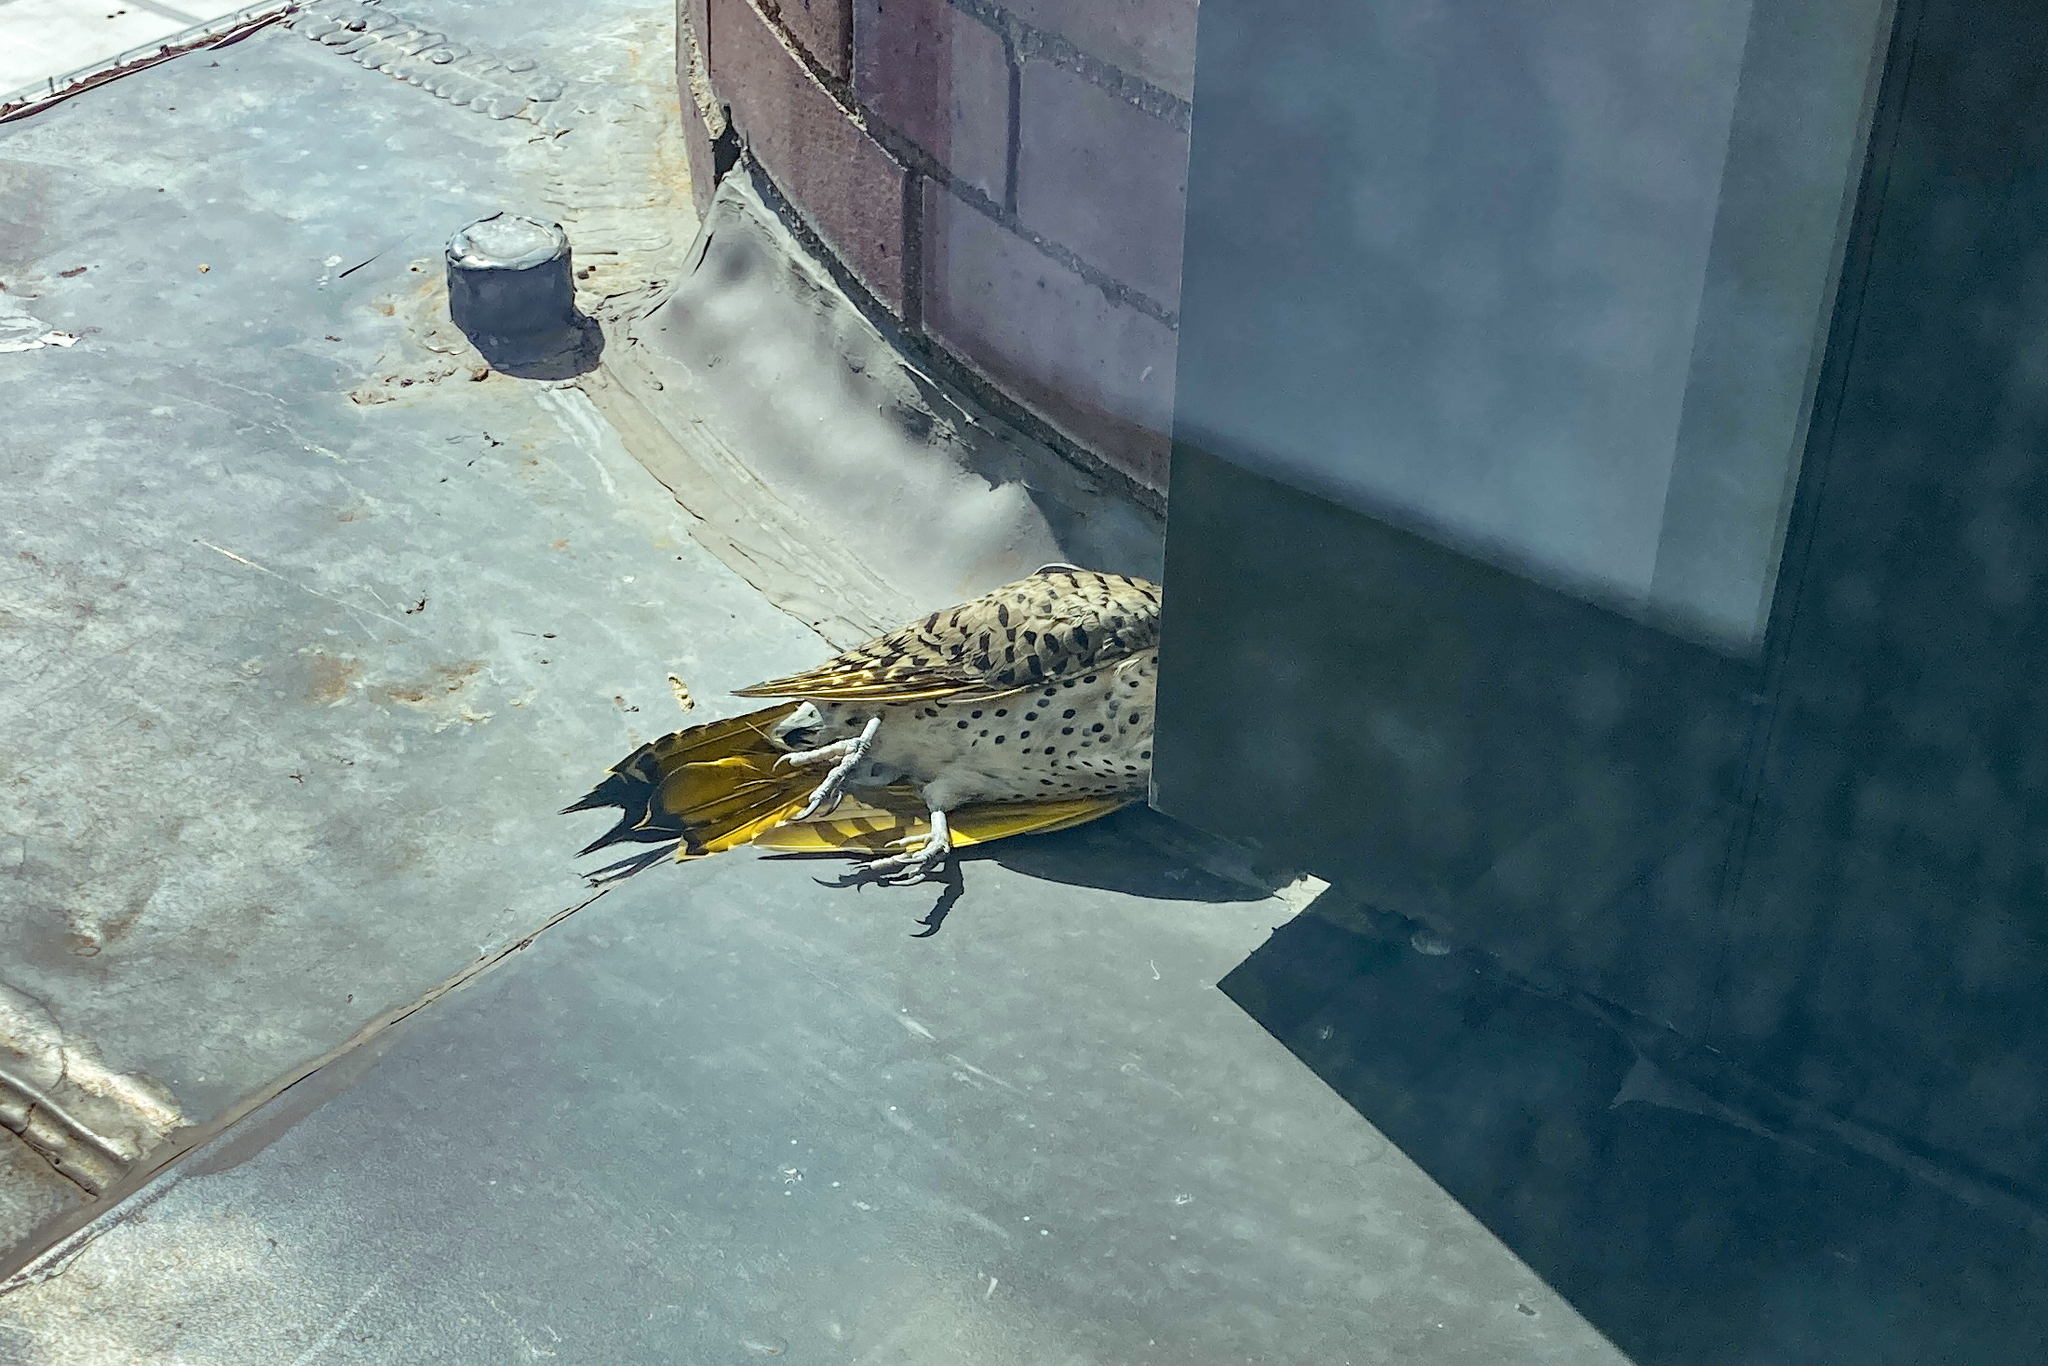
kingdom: Animalia
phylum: Chordata
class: Aves
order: Piciformes
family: Picidae
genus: Colaptes
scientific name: Colaptes auratus
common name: Northern flicker
